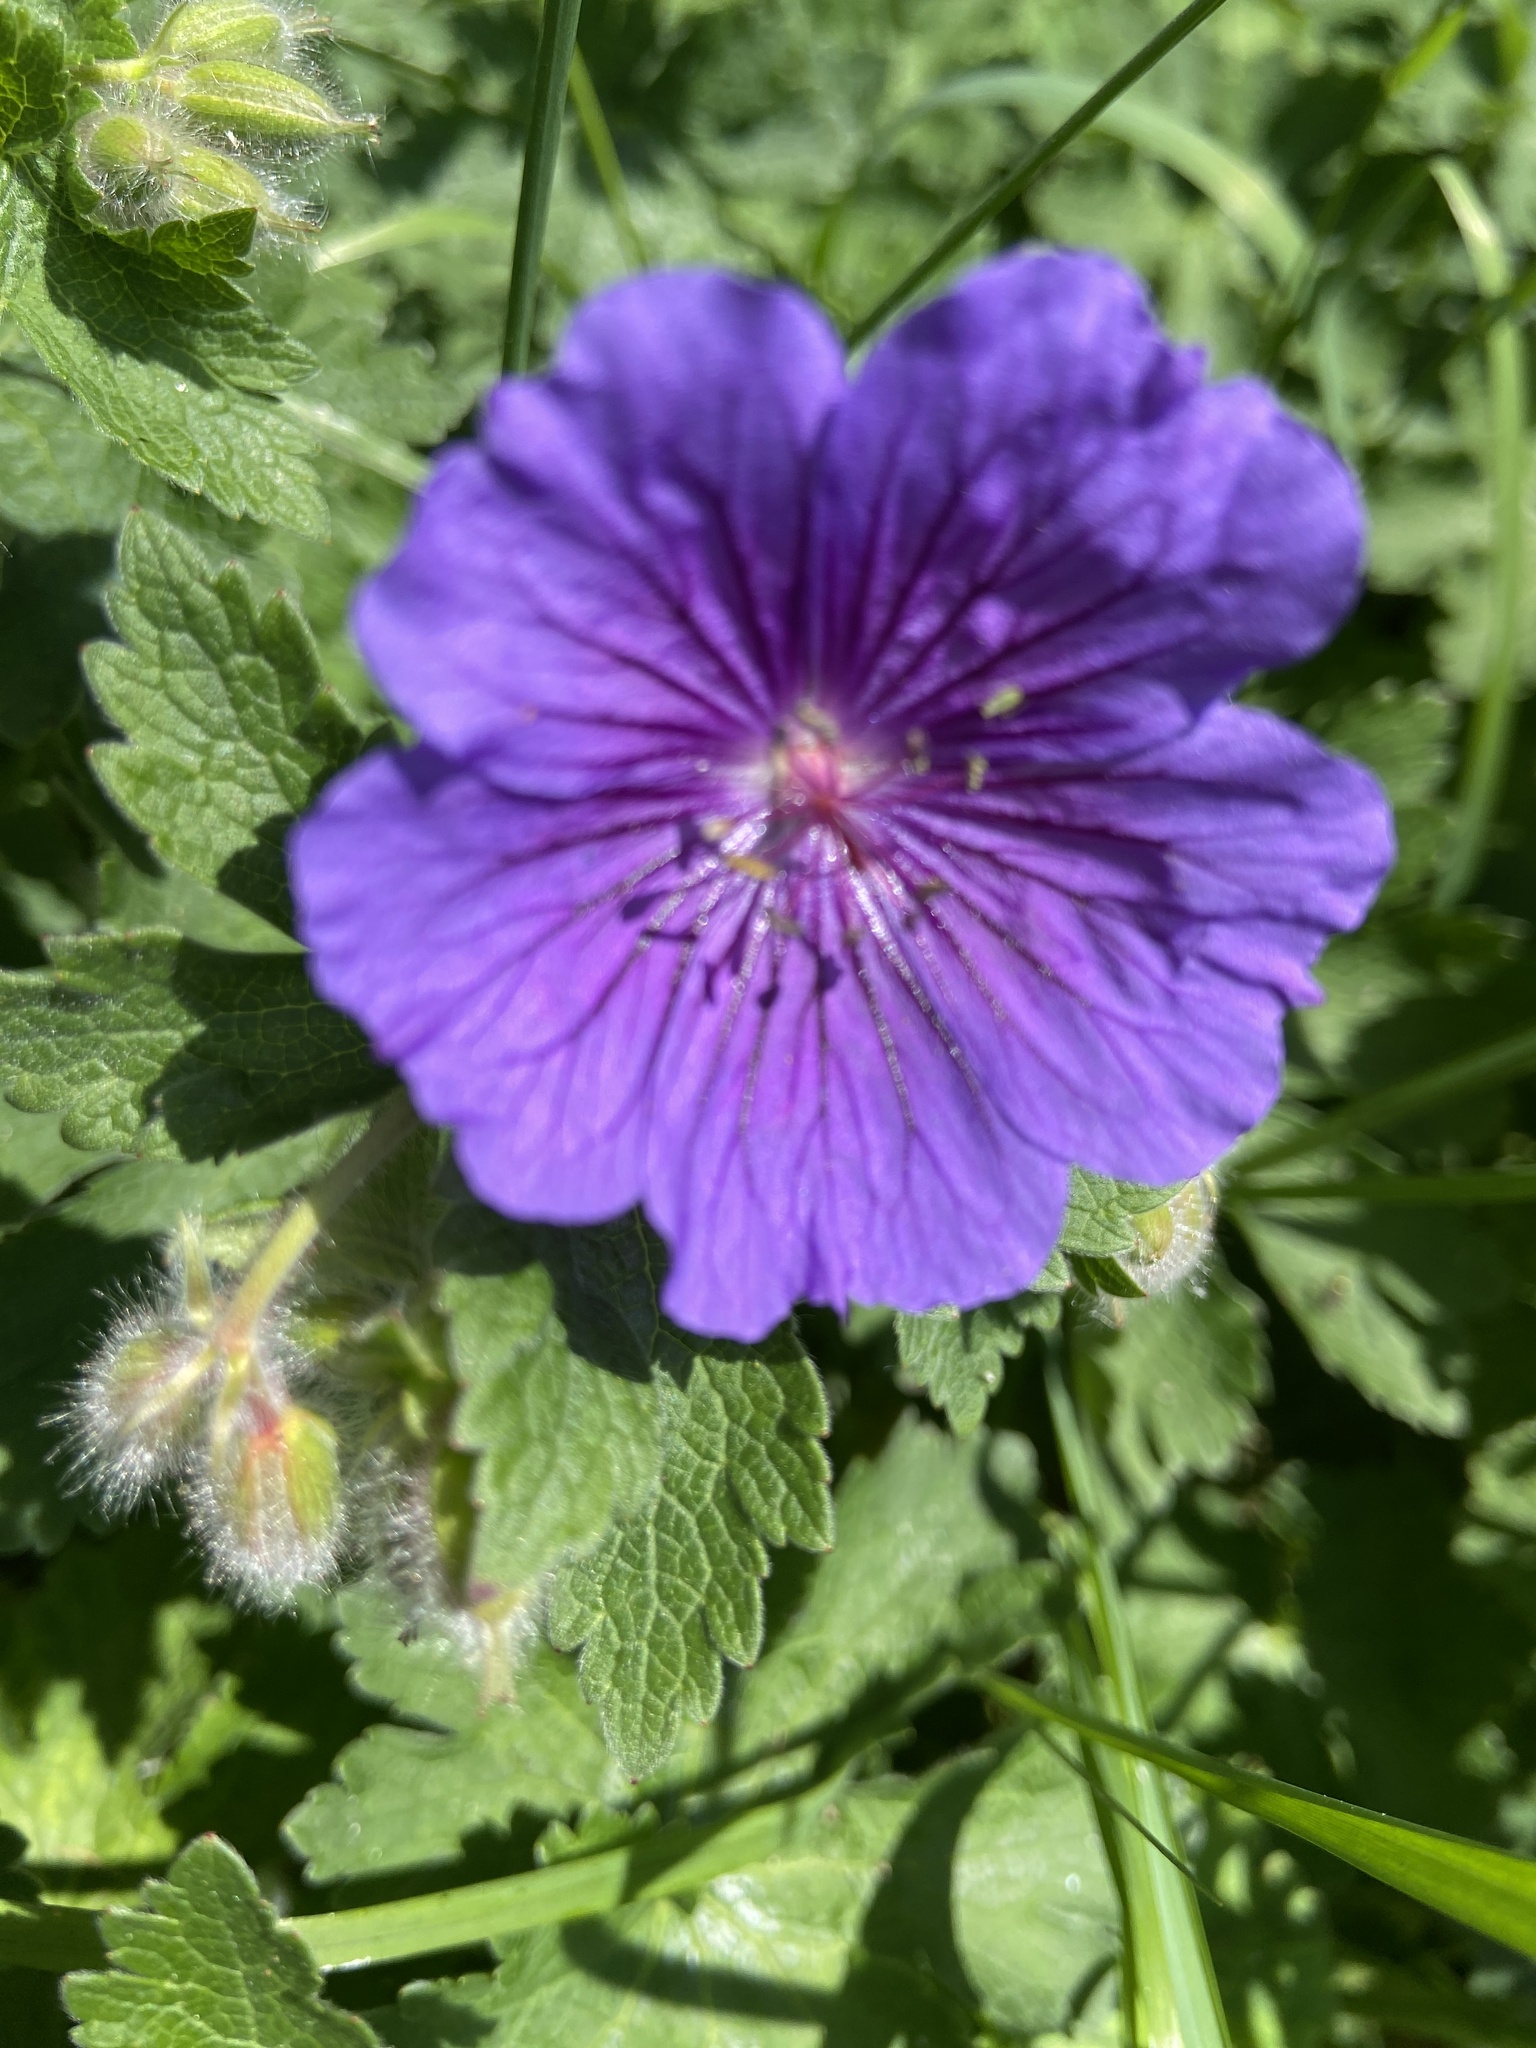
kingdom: Plantae
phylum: Tracheophyta
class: Magnoliopsida
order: Geraniales
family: Geraniaceae
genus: Geranium
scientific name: Geranium magnificum
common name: Purple crane's-bill
